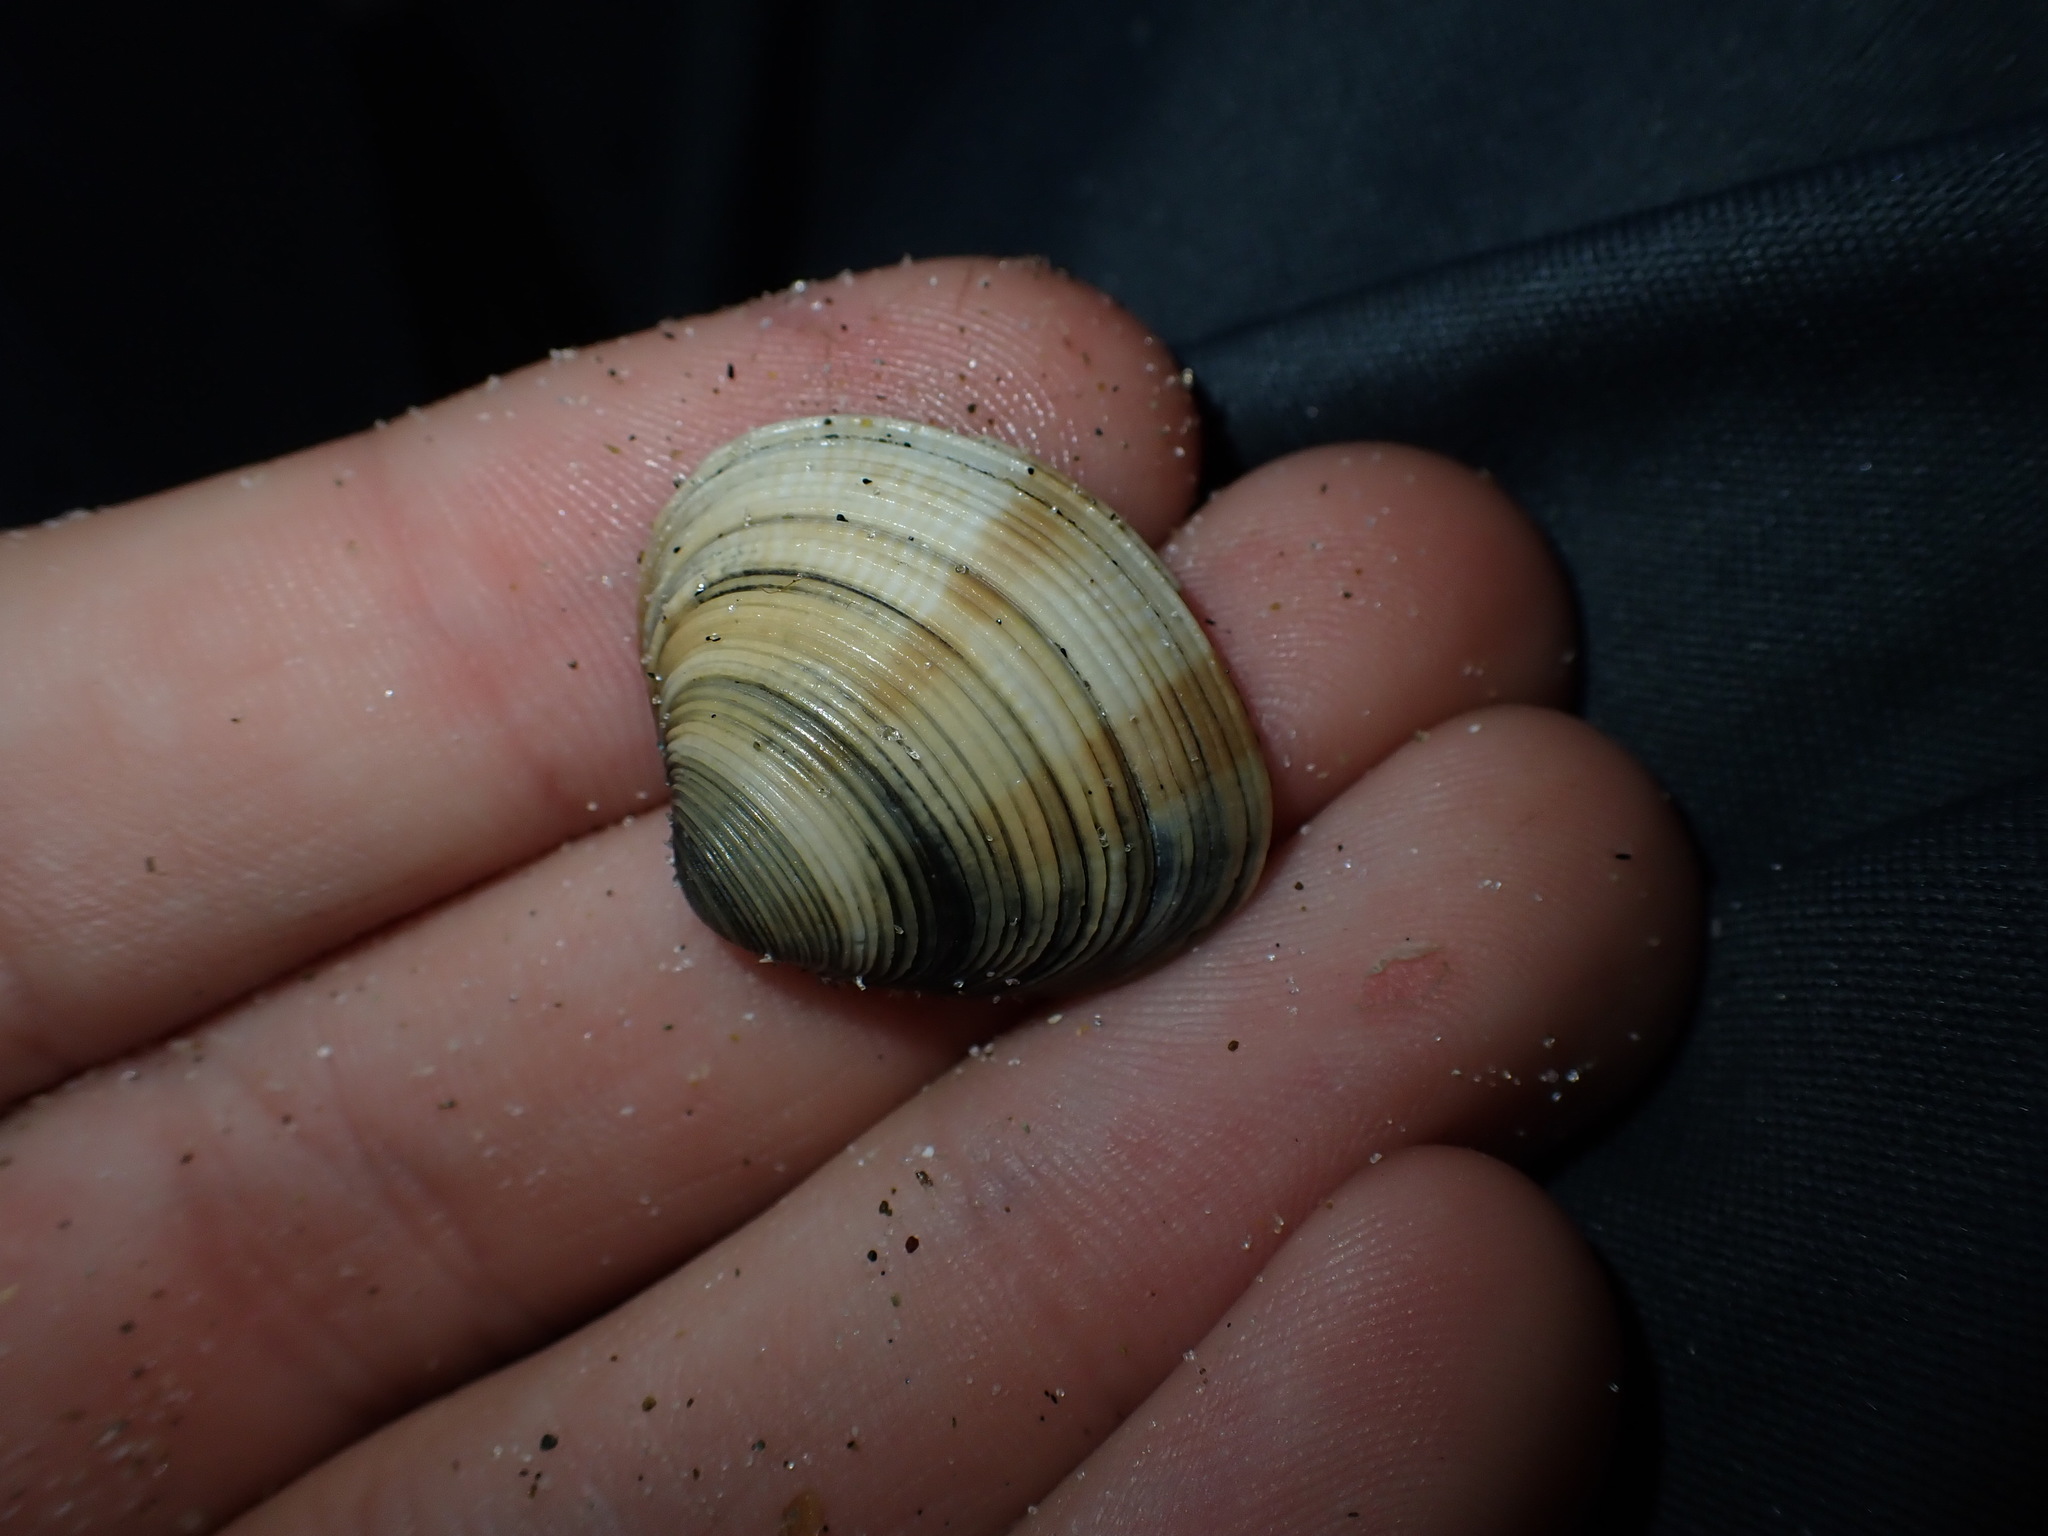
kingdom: Animalia
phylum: Mollusca
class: Bivalvia
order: Venerida
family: Veneridae
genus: Tawera
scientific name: Tawera spissa
